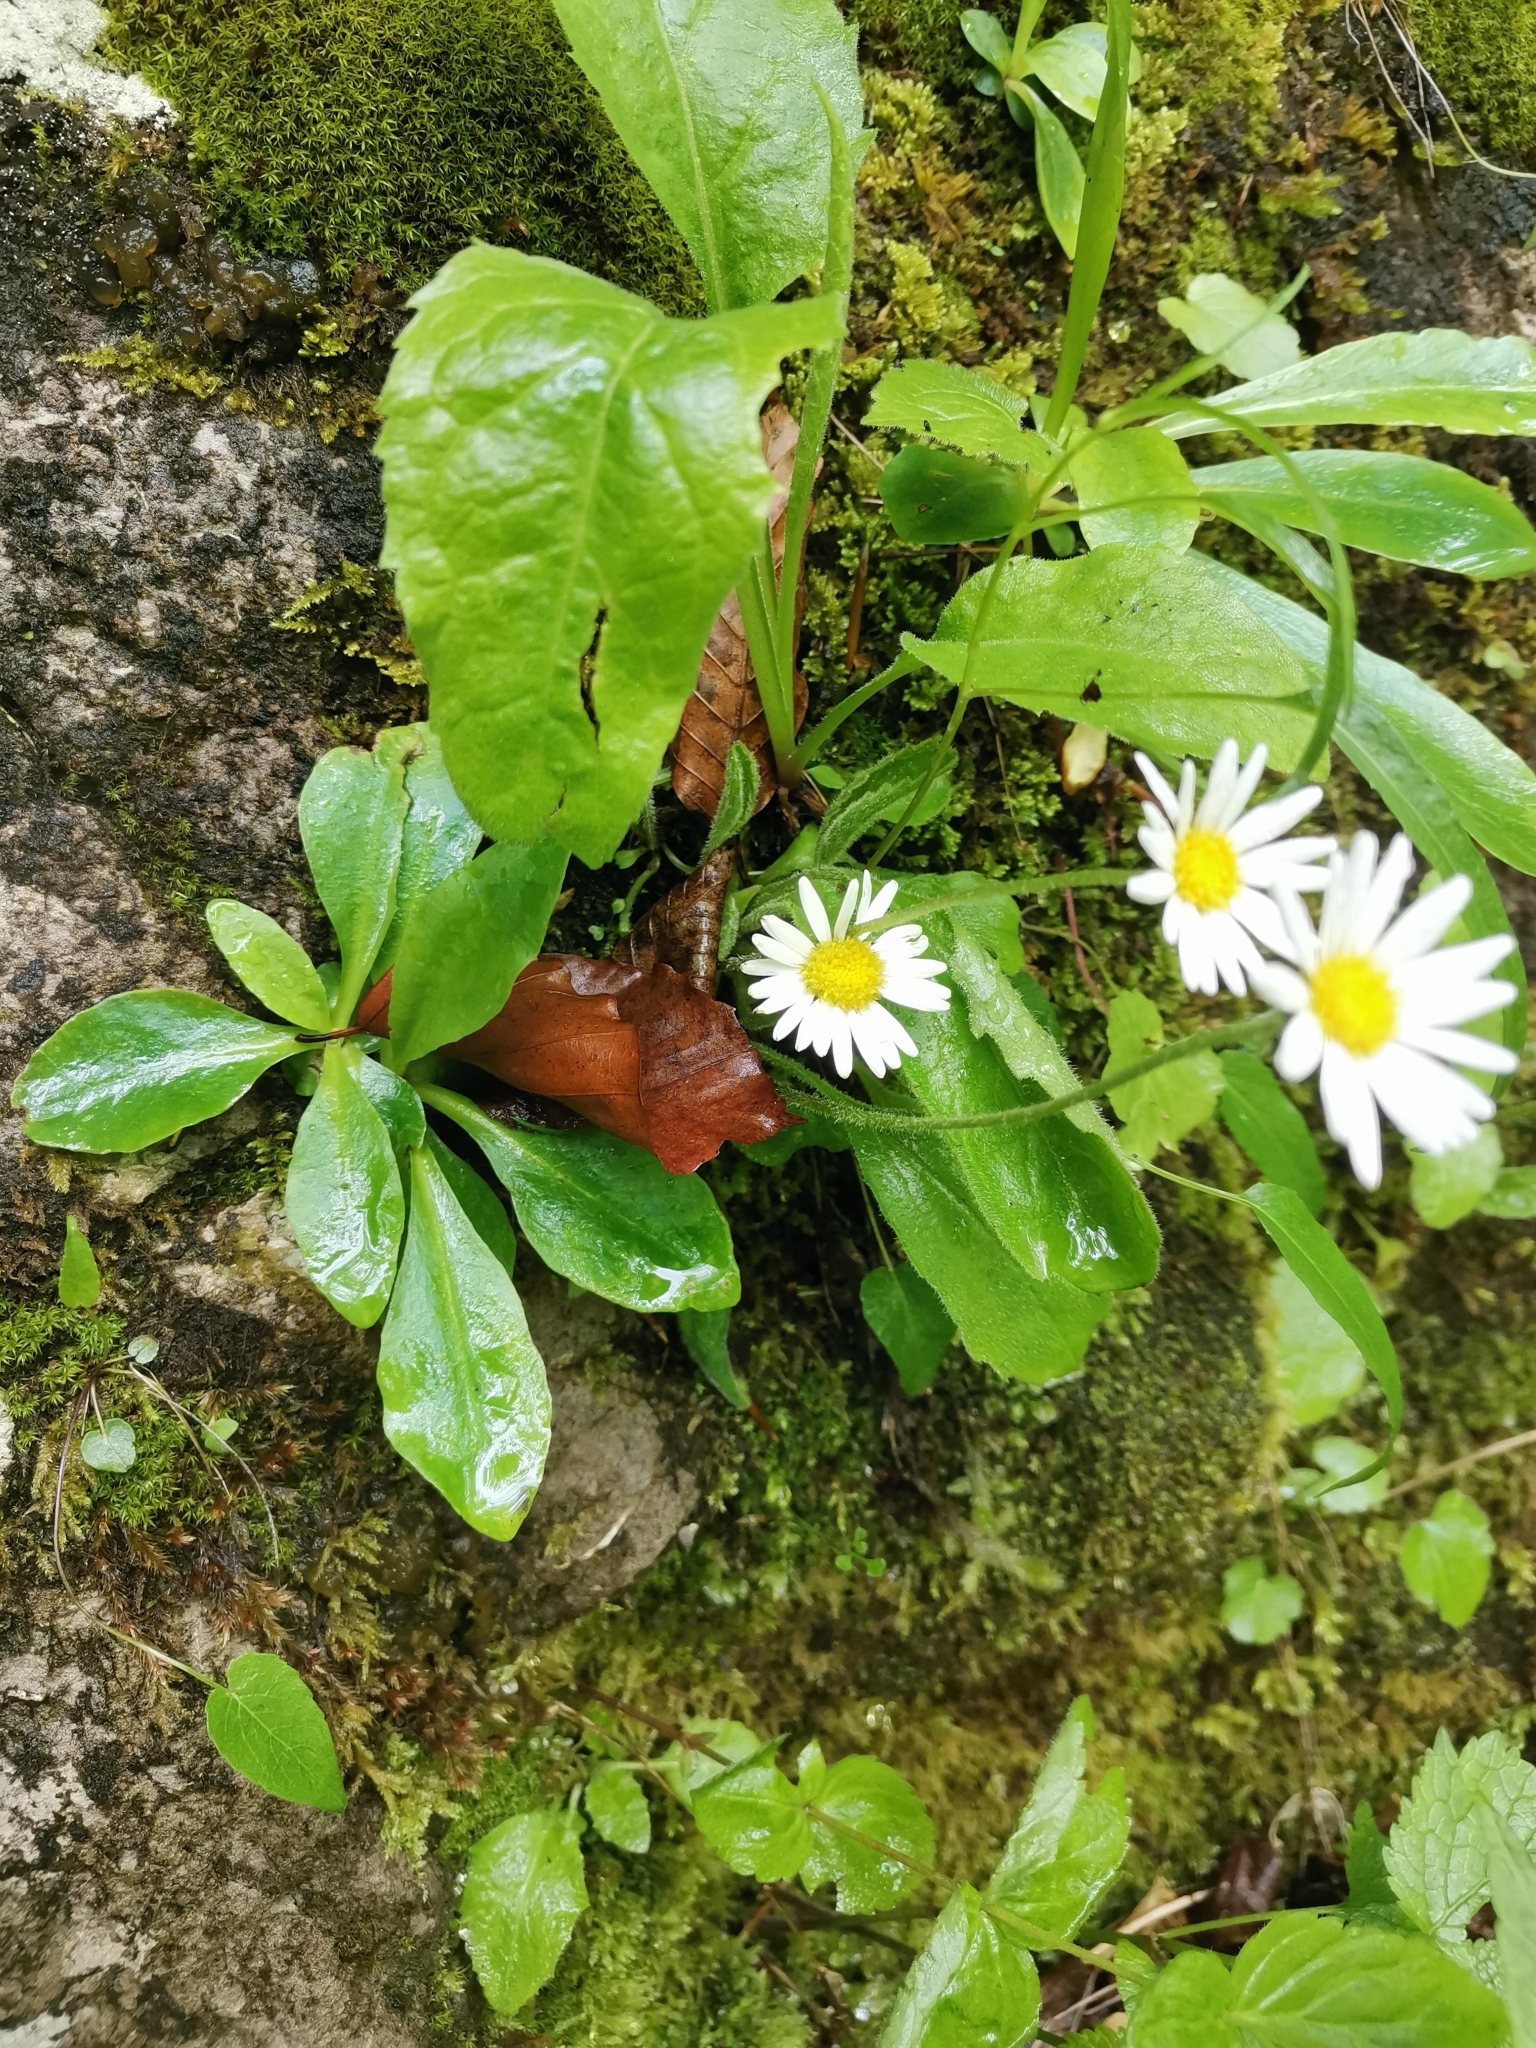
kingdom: Plantae
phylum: Tracheophyta
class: Magnoliopsida
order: Asterales
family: Asteraceae
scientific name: Asteraceae
